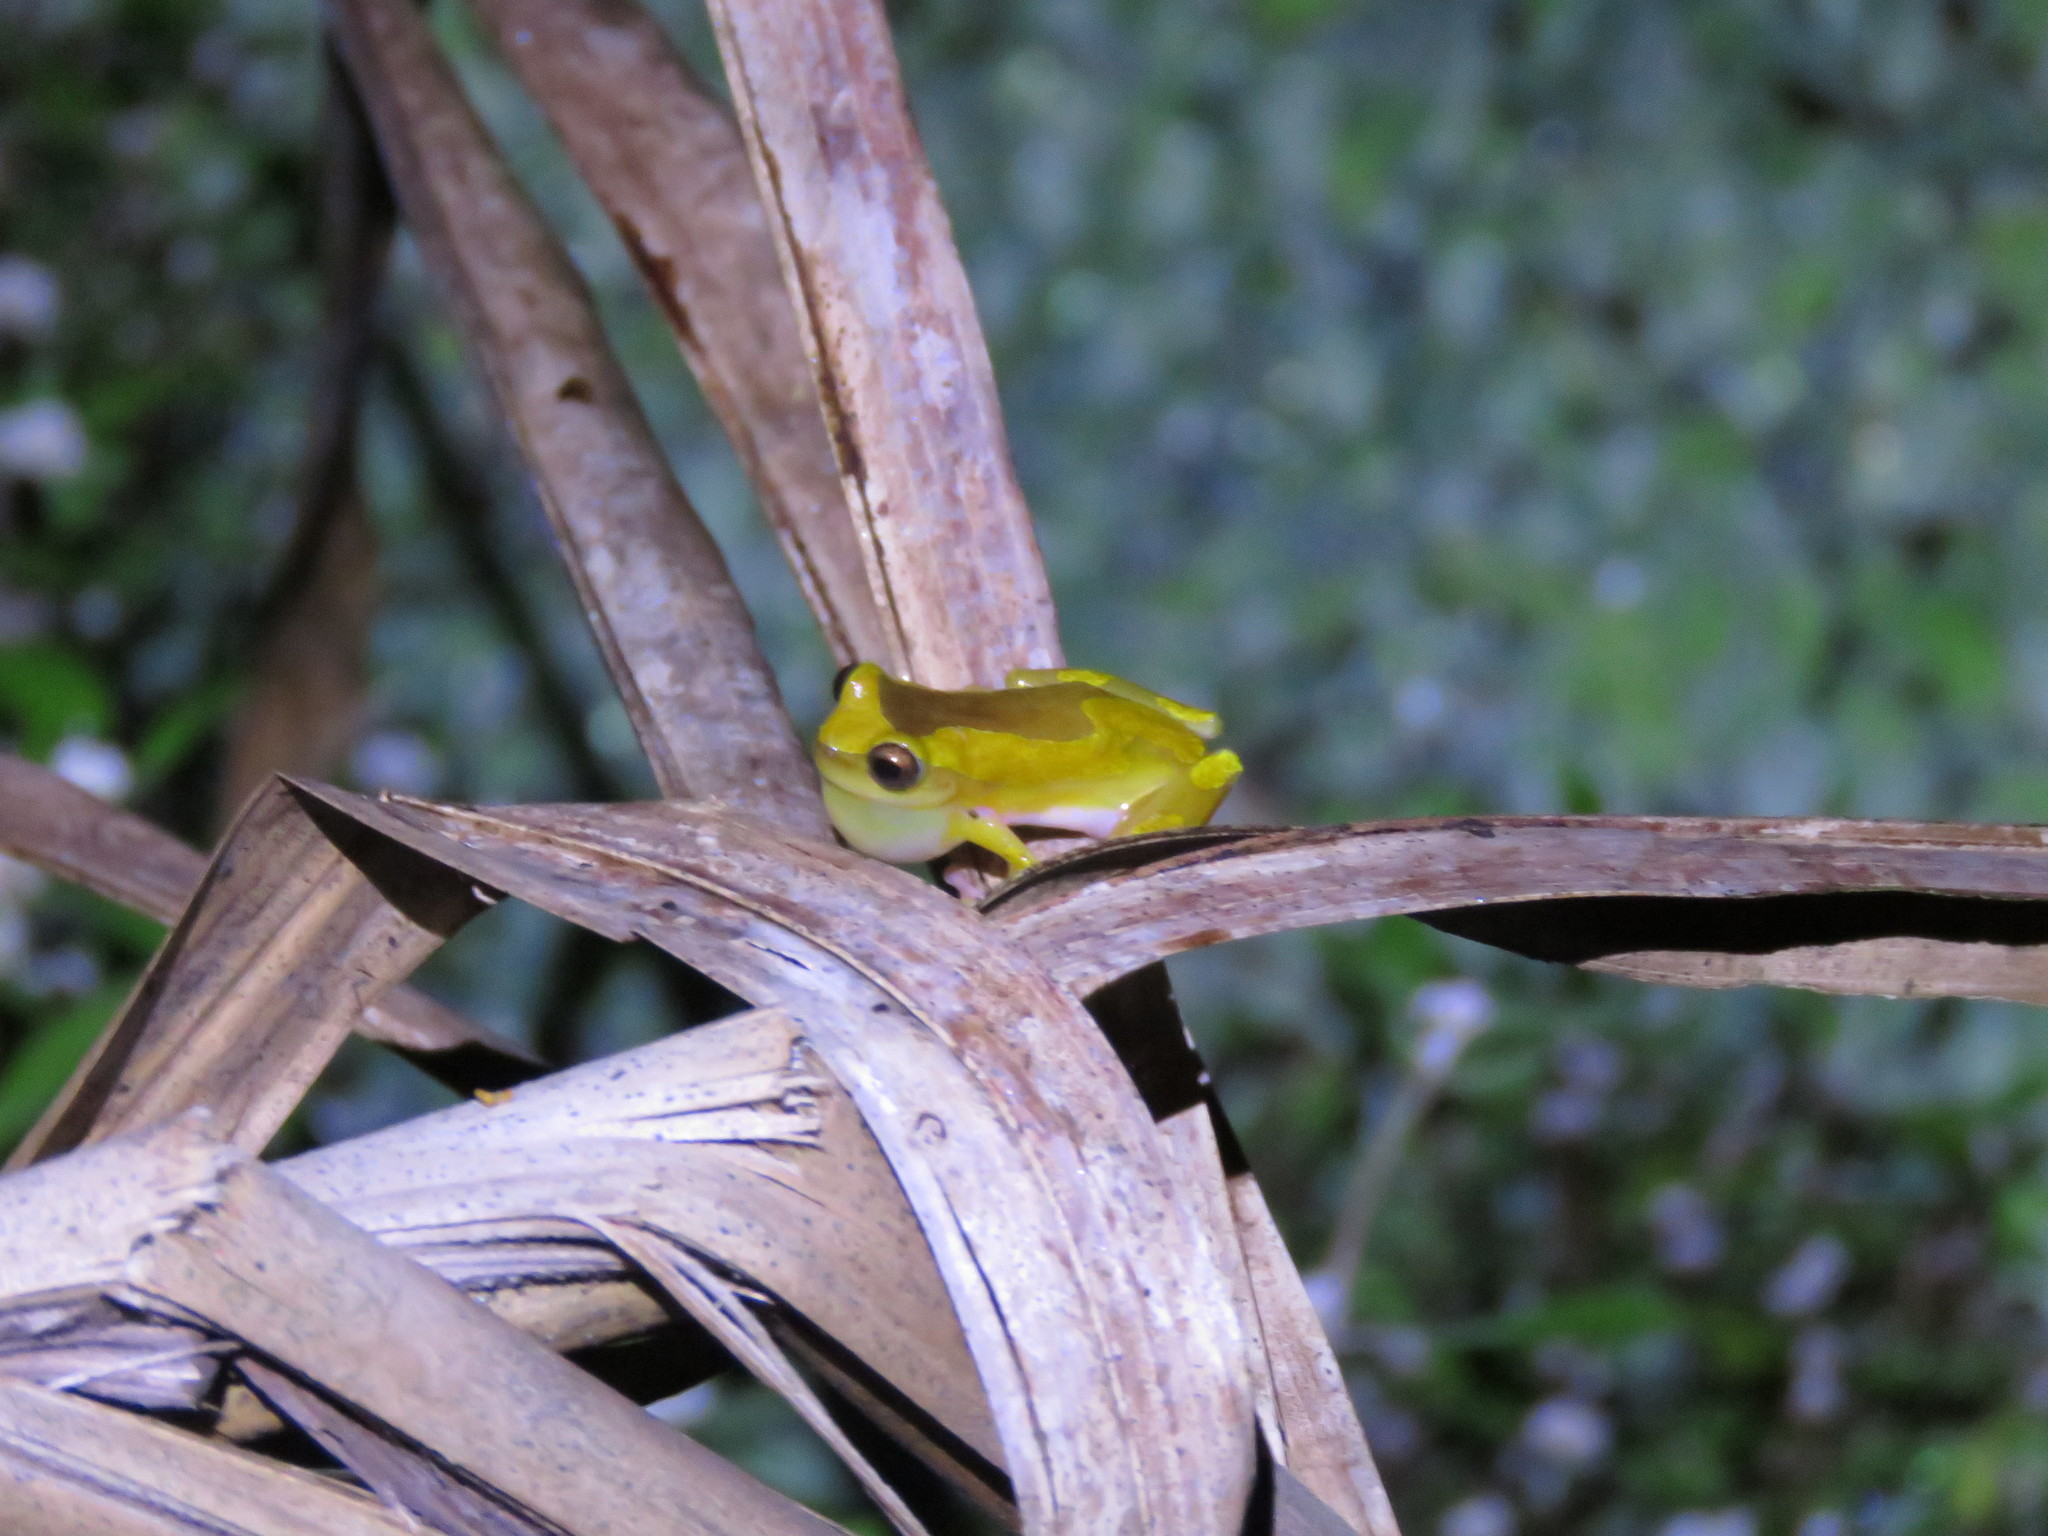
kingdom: Animalia
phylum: Chordata
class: Amphibia
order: Anura
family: Hylidae
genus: Dendropsophus
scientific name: Dendropsophus arndti
